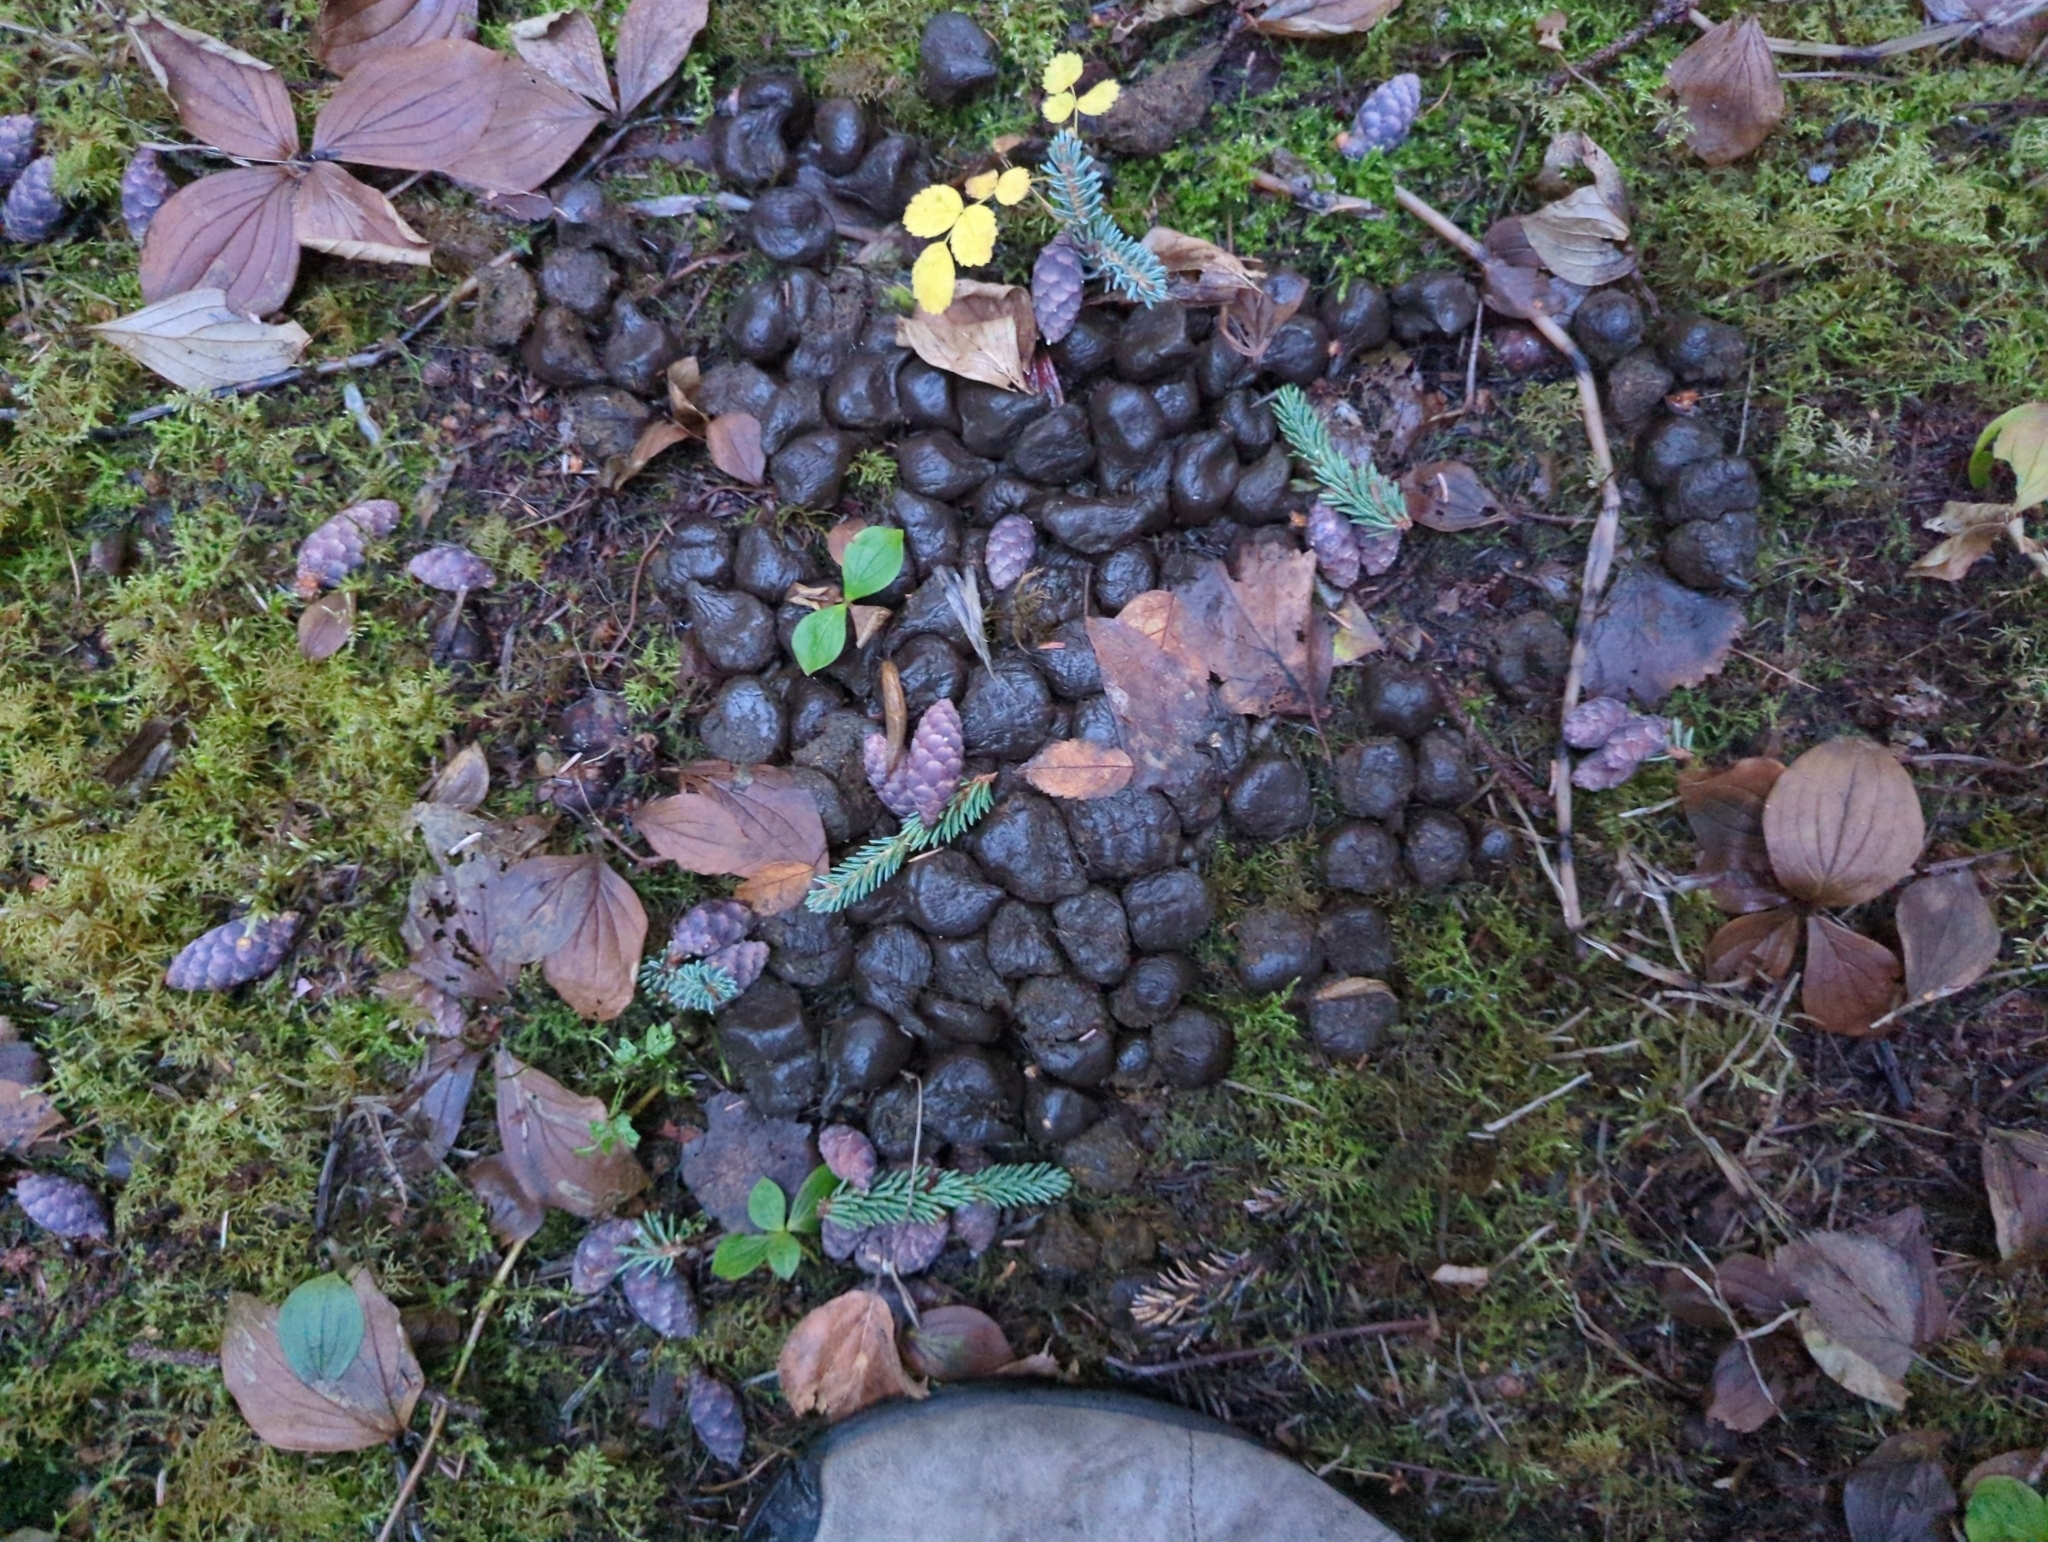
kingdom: Animalia
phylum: Chordata
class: Mammalia
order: Artiodactyla
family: Cervidae
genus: Alces
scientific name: Alces alces
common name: Moose
